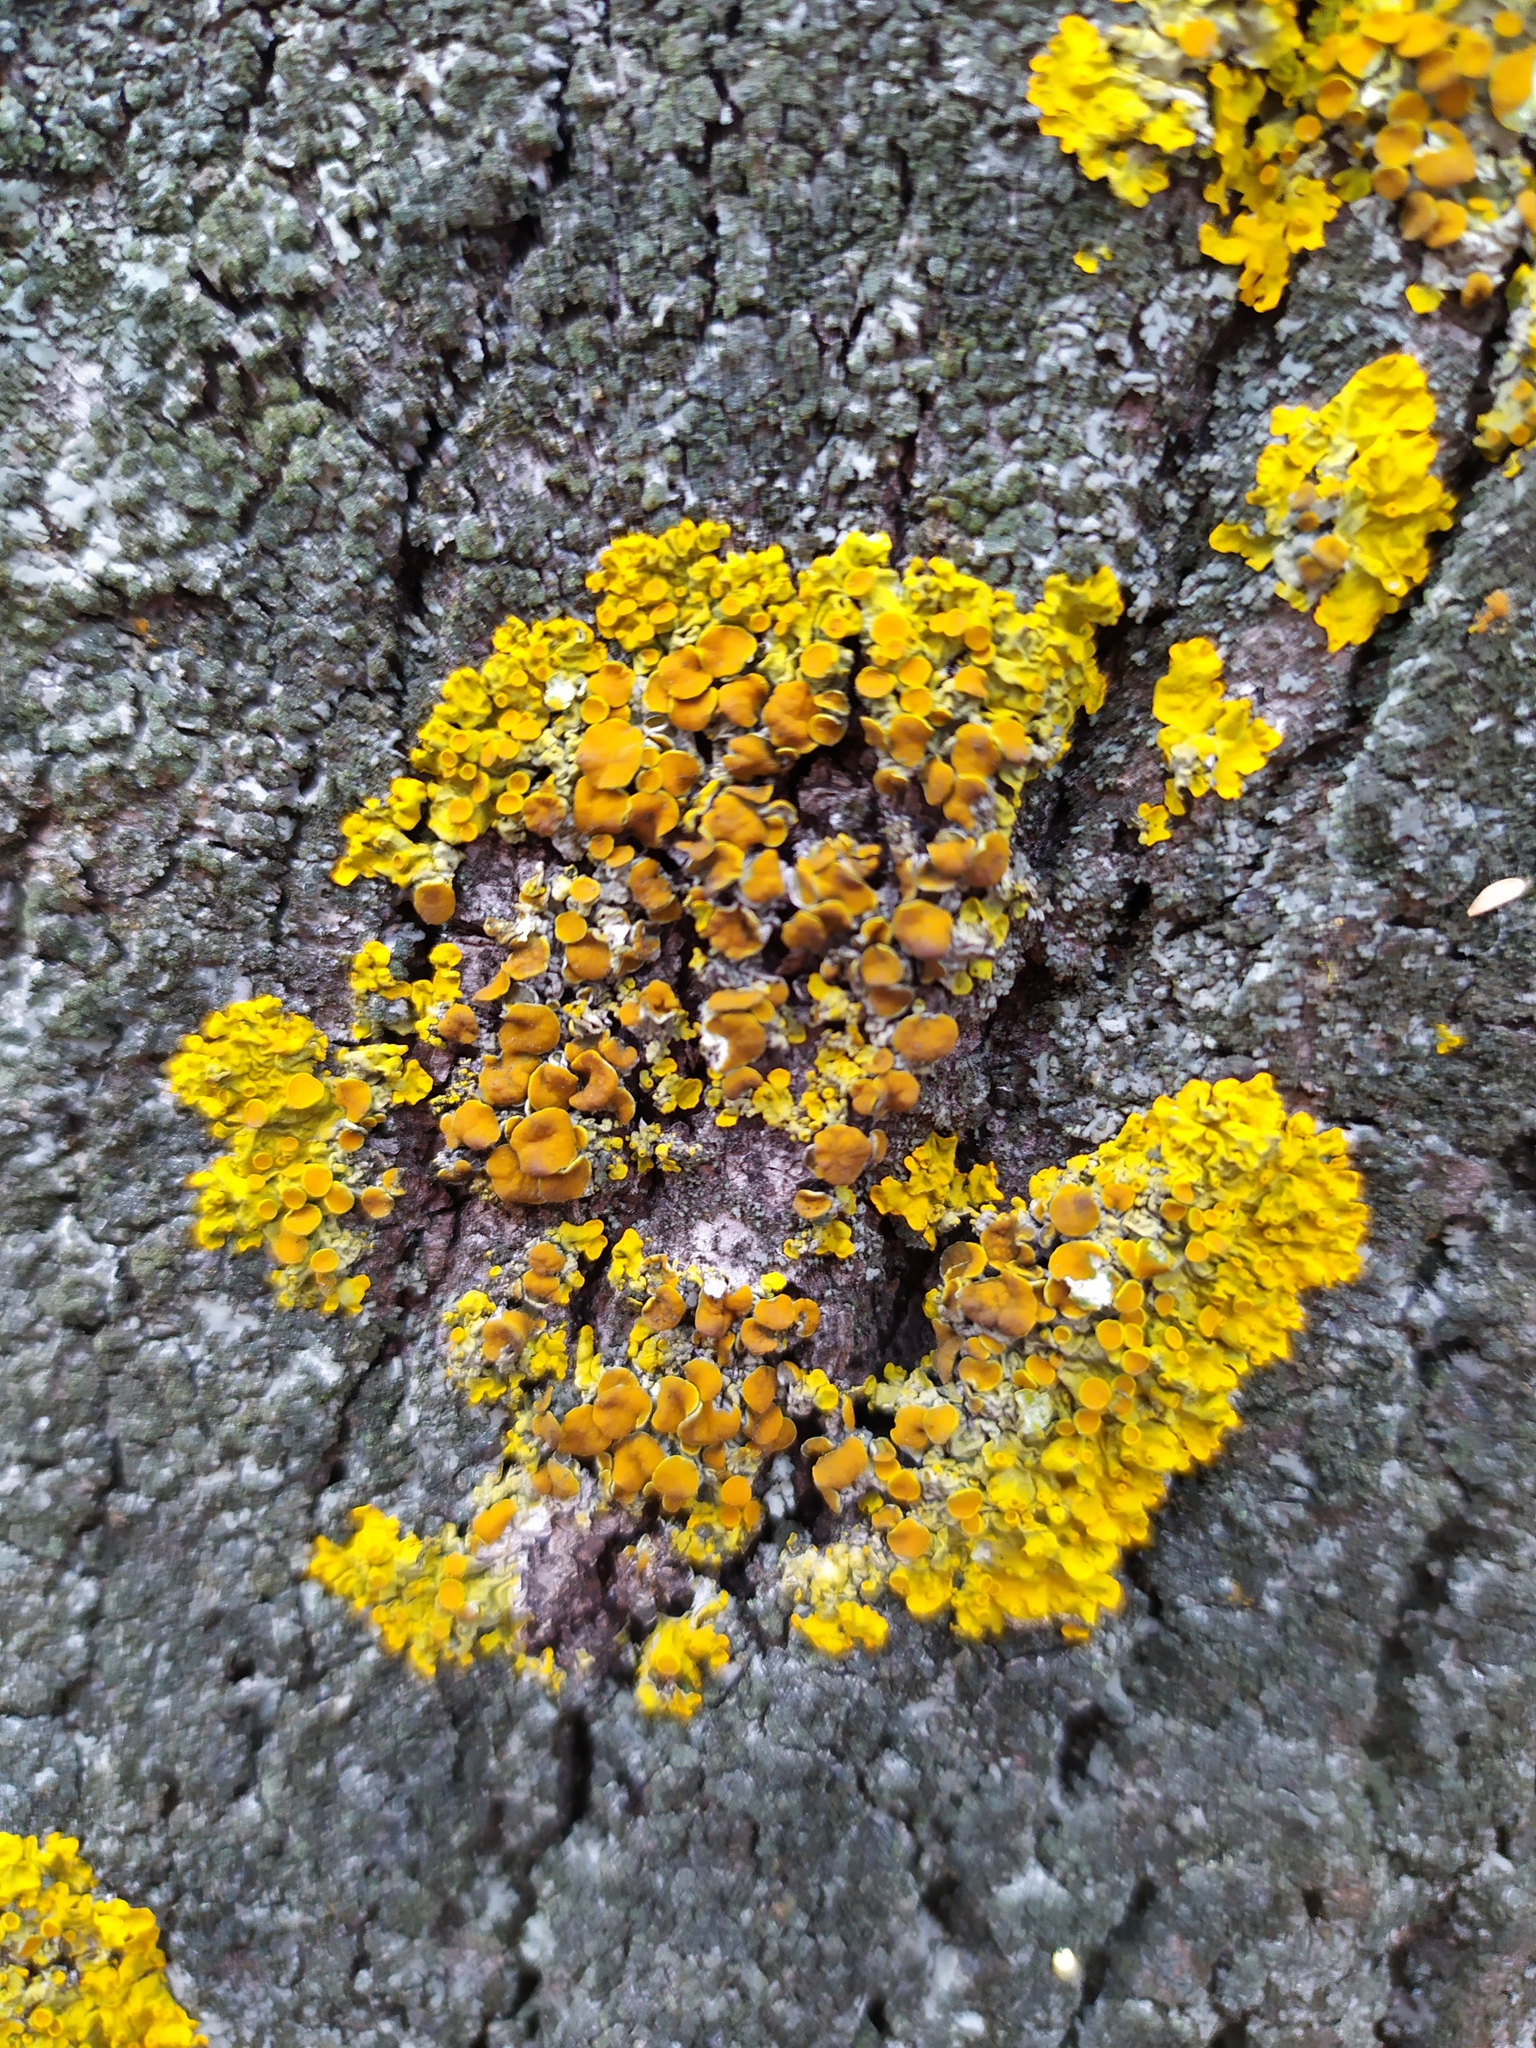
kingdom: Fungi
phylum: Ascomycota
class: Lecanoromycetes
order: Teloschistales
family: Teloschistaceae
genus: Xanthoria
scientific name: Xanthoria parietina
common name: Common orange lichen
